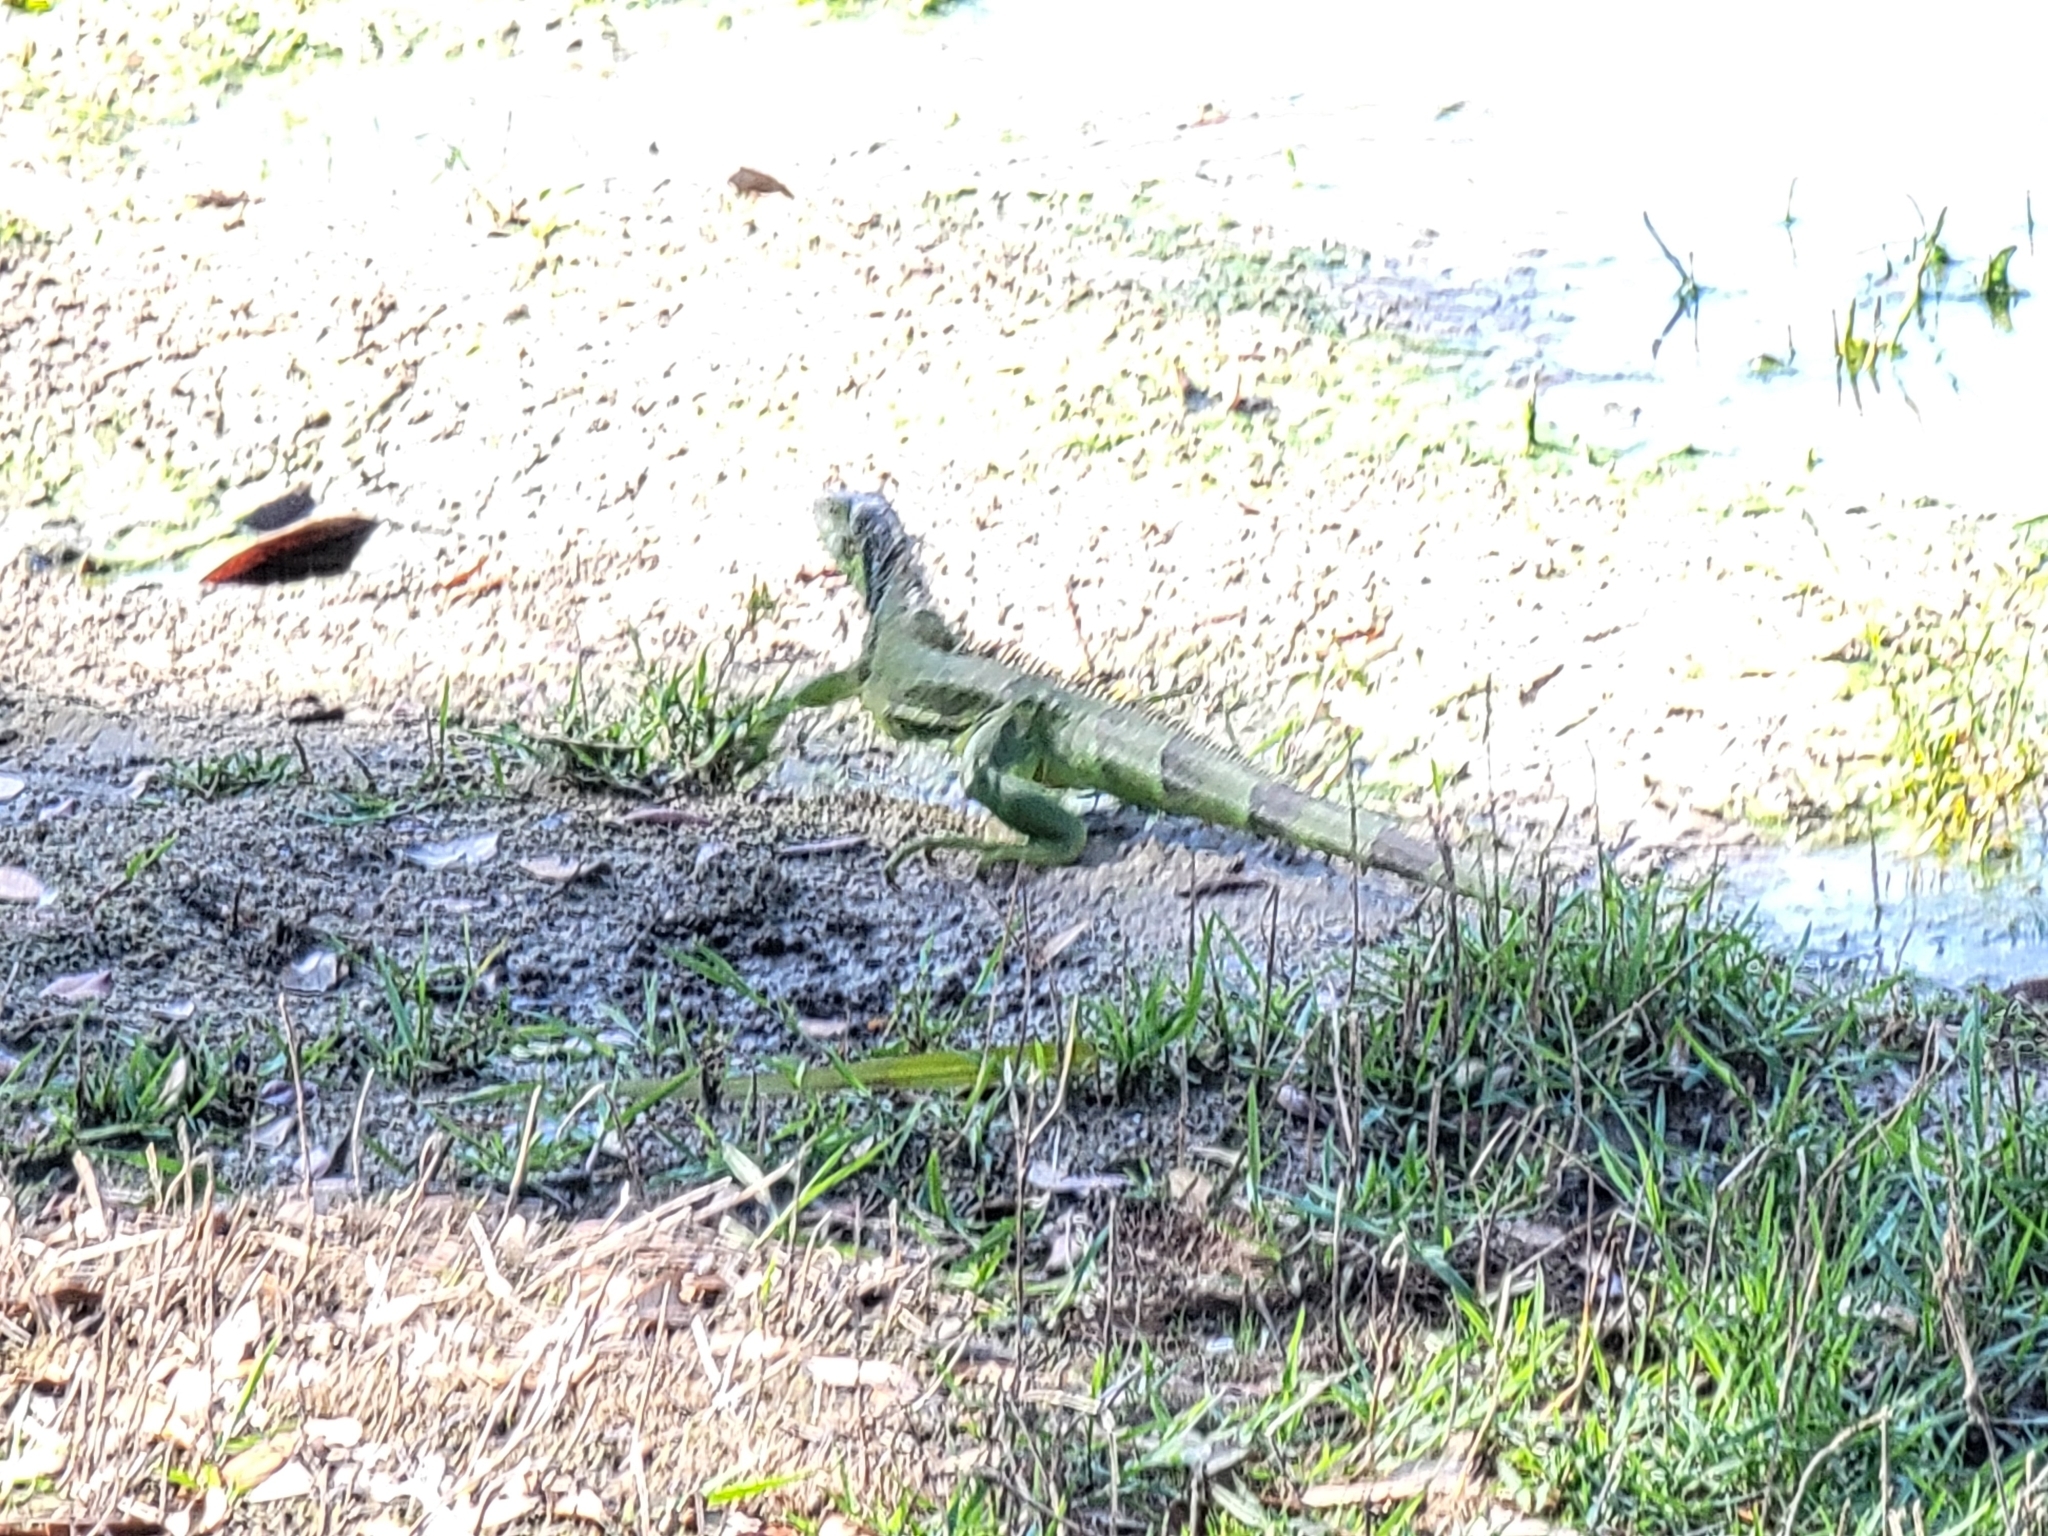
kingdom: Animalia
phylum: Chordata
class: Squamata
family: Iguanidae
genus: Iguana
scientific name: Iguana iguana
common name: Green iguana
